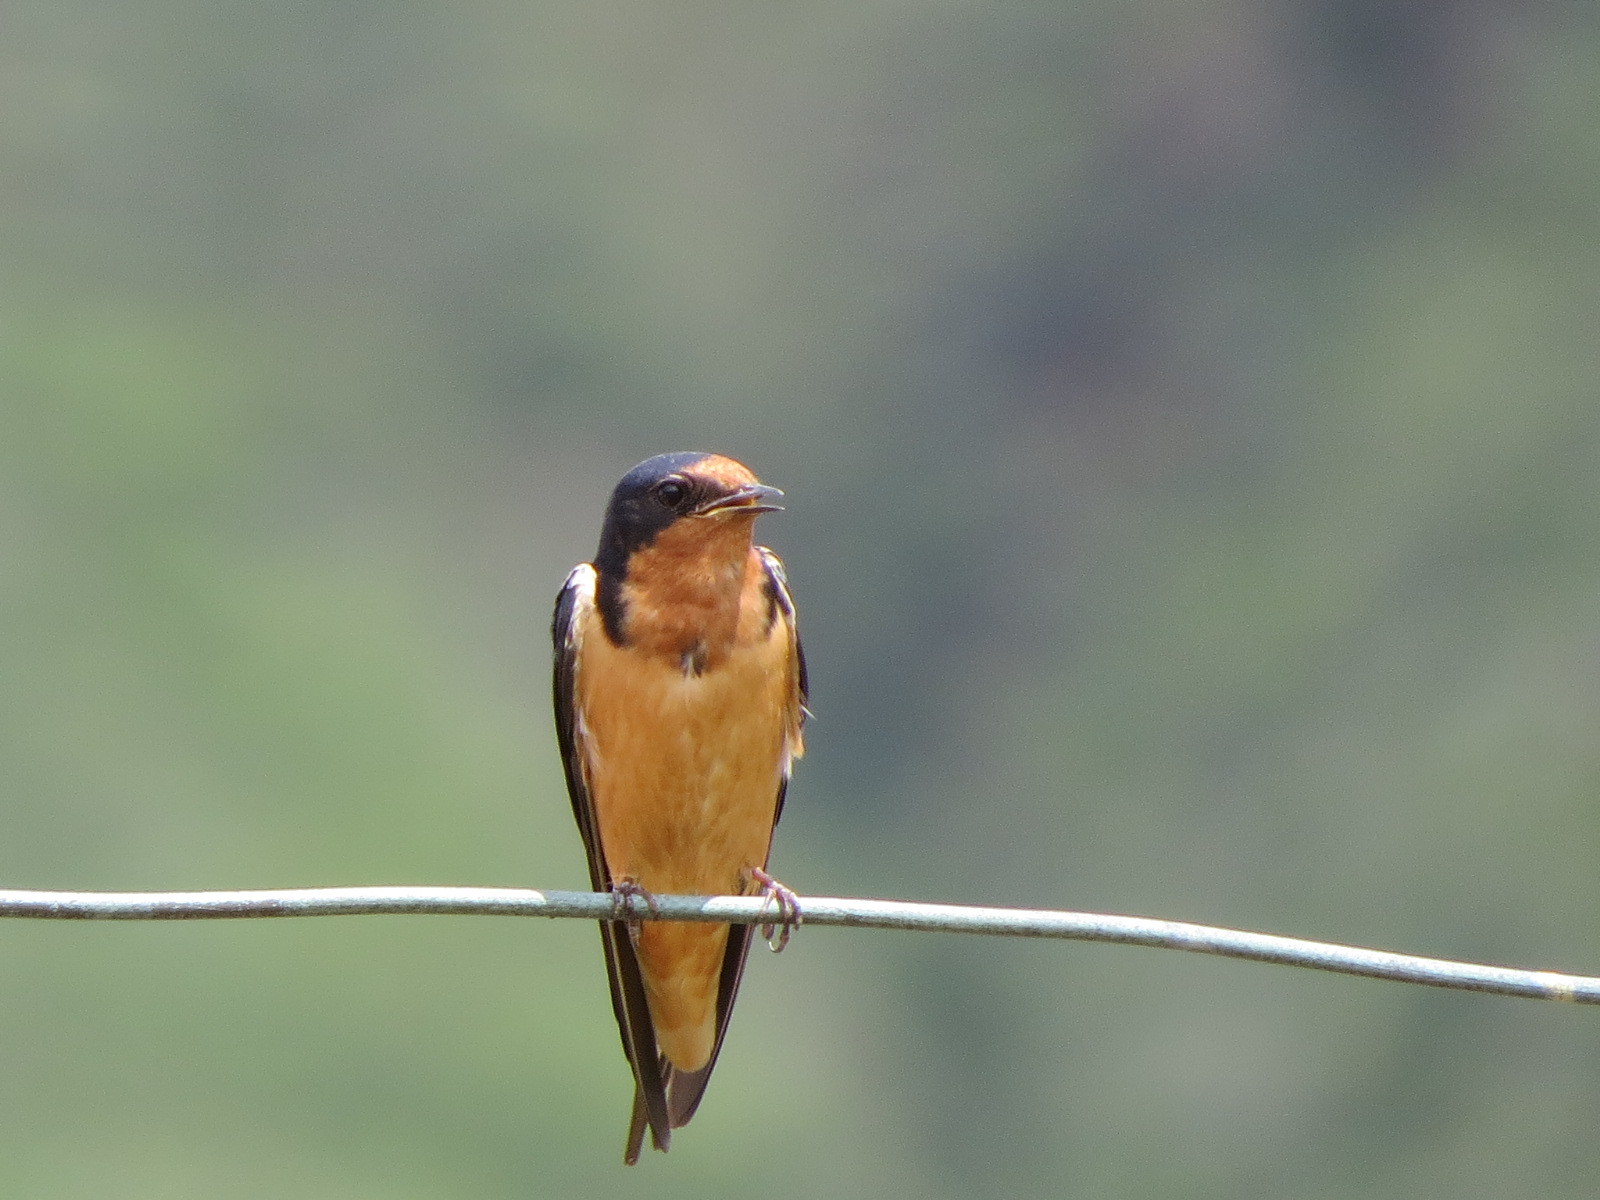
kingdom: Animalia
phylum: Chordata
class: Aves
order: Passeriformes
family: Hirundinidae
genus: Hirundo
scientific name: Hirundo rustica
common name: Barn swallow
